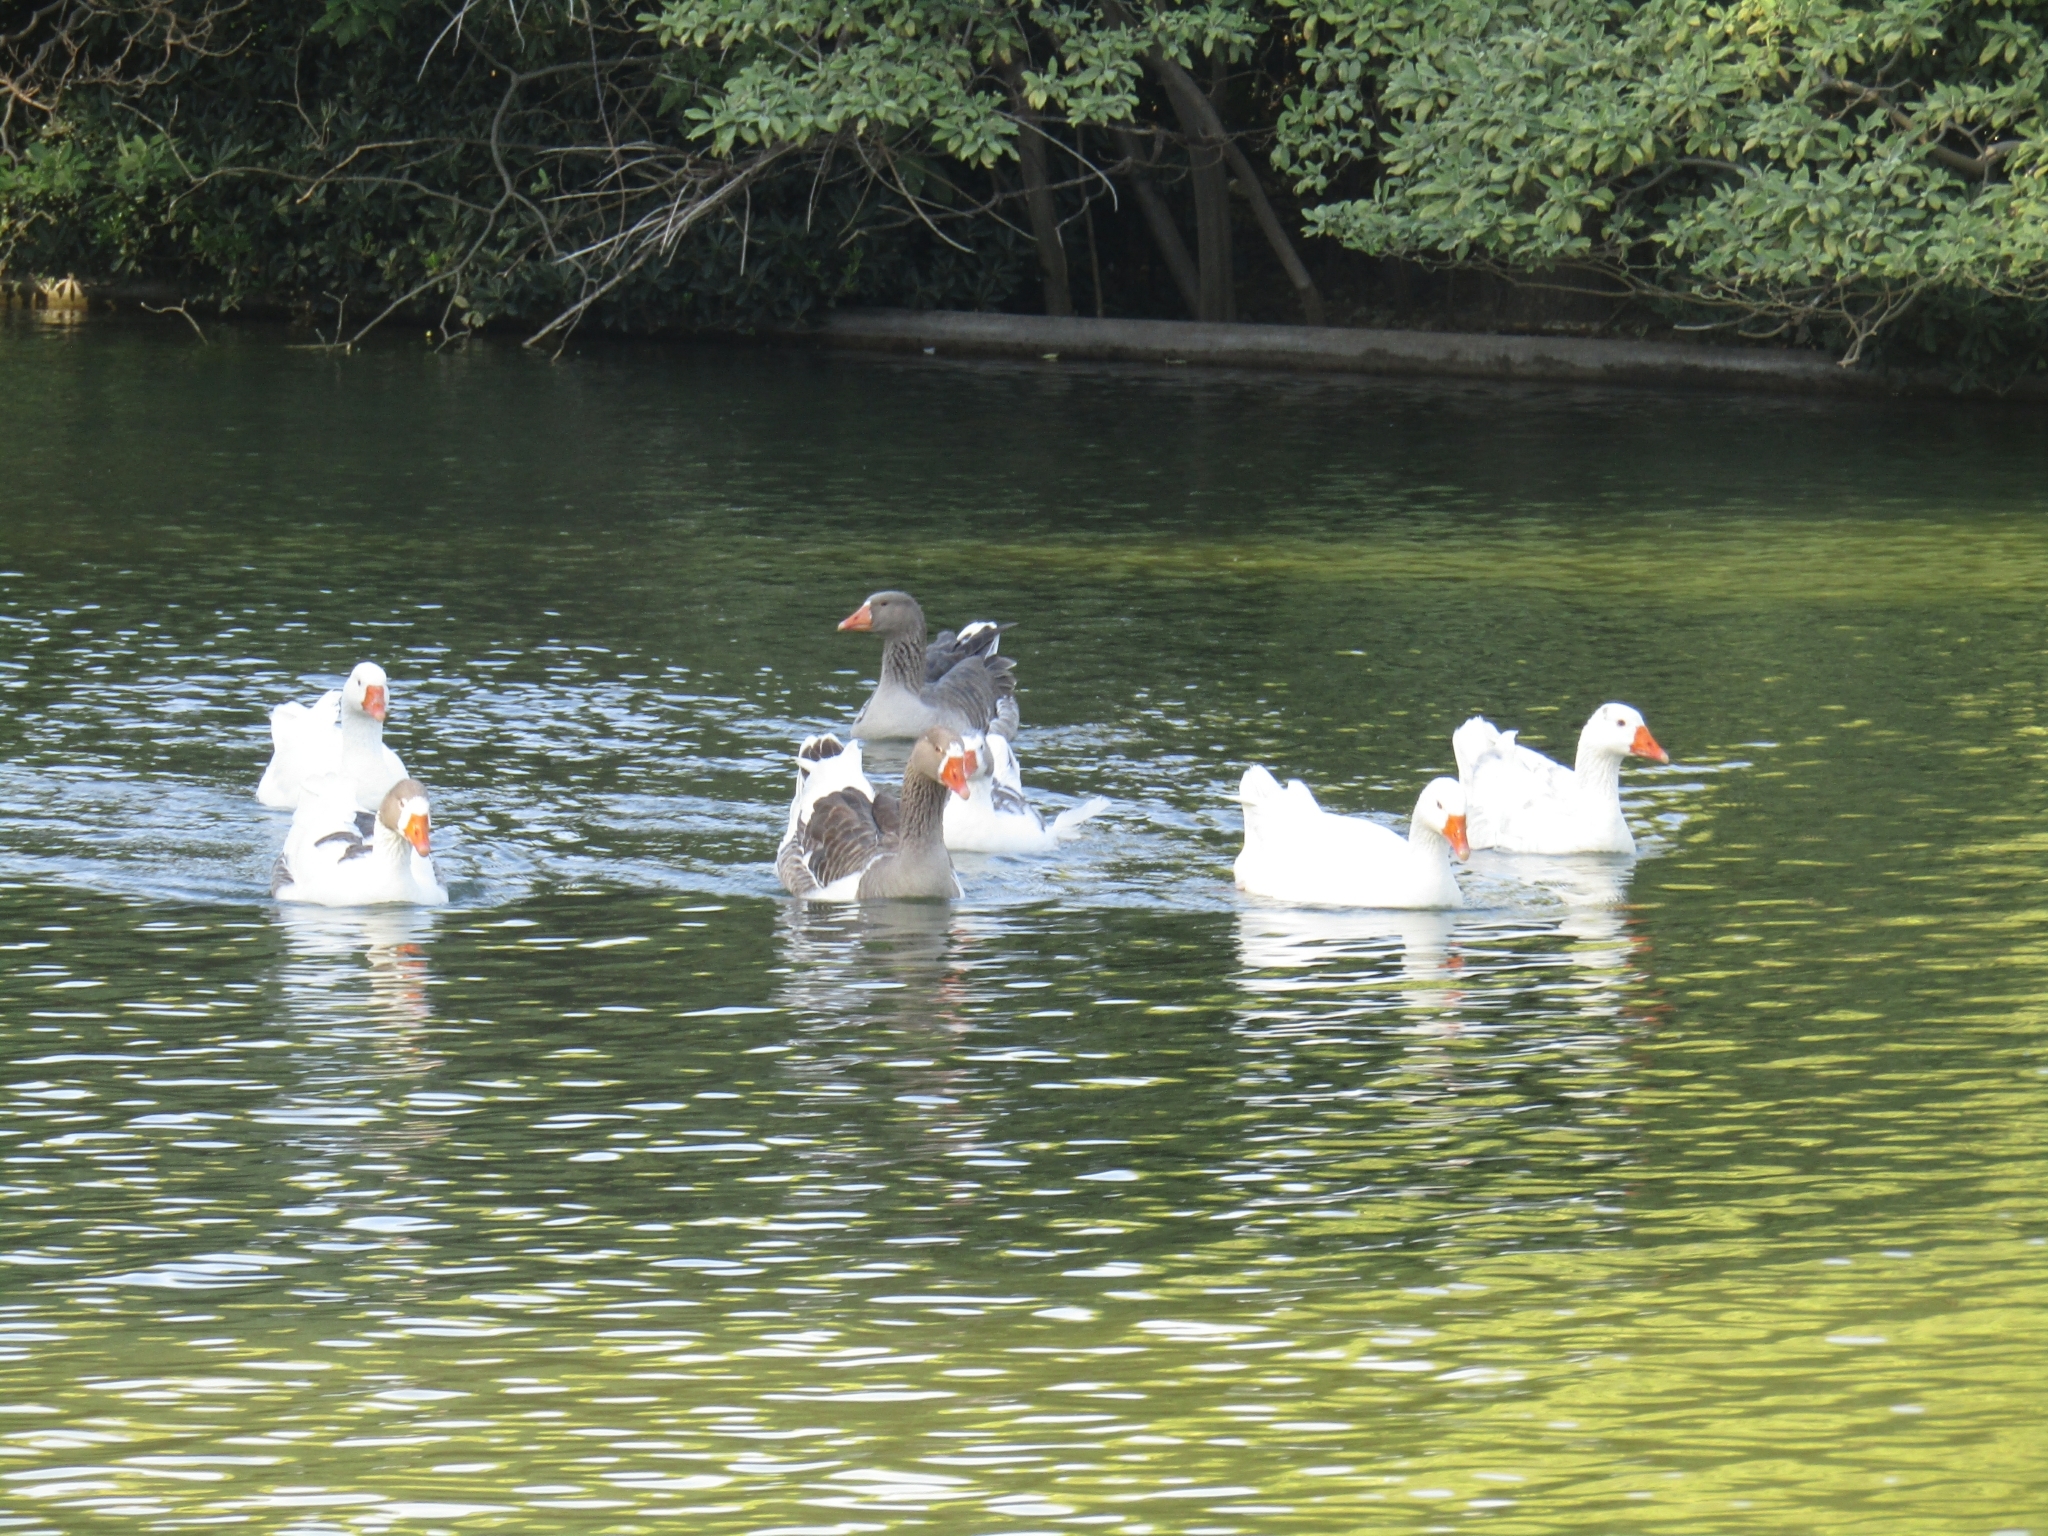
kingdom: Animalia
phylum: Chordata
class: Aves
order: Anseriformes
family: Anatidae
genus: Anser
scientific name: Anser anser
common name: Greylag goose
